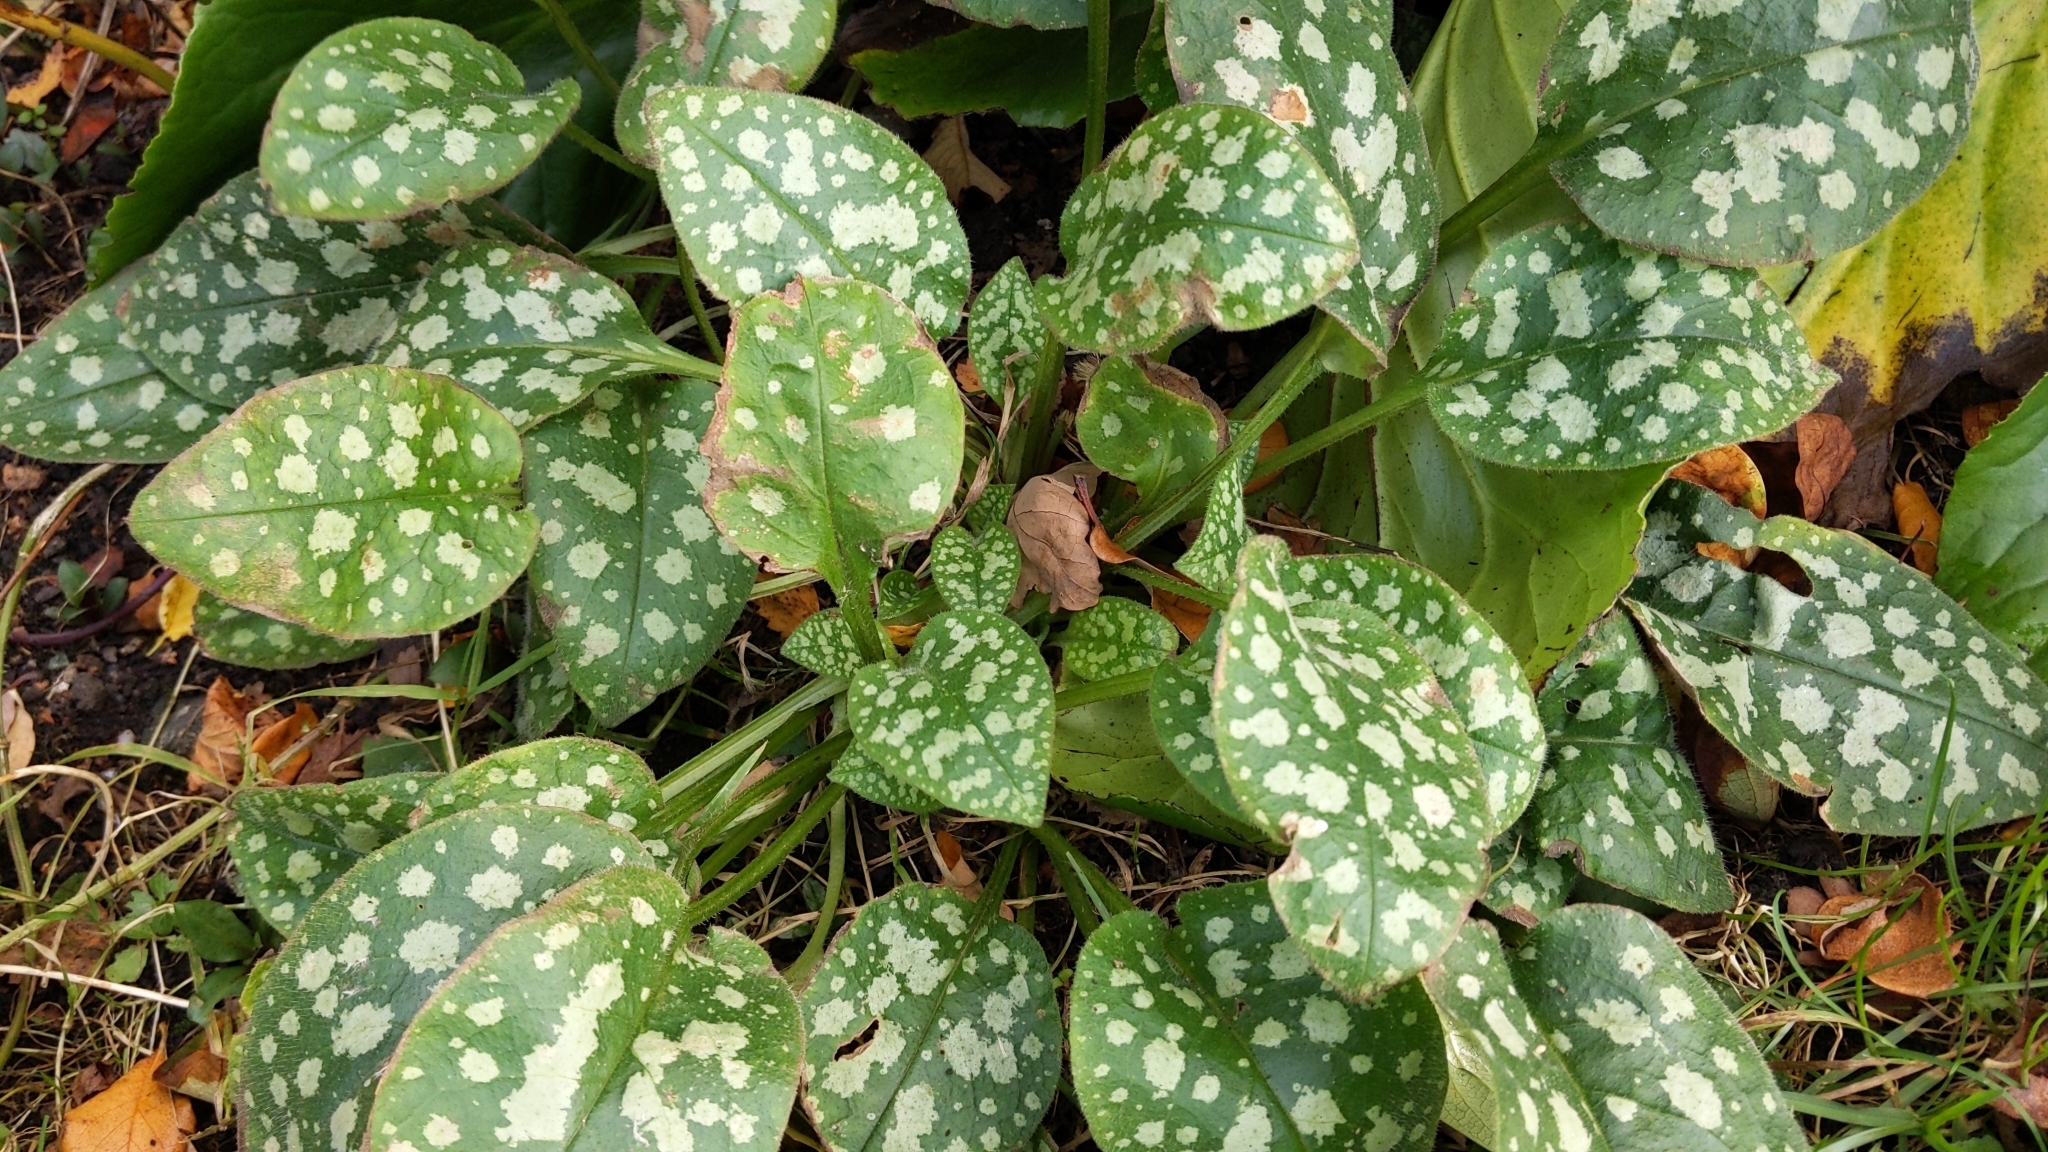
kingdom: Plantae
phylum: Tracheophyta
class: Magnoliopsida
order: Boraginales
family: Boraginaceae
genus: Pulmonaria
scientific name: Pulmonaria officinalis
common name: Lungwort
